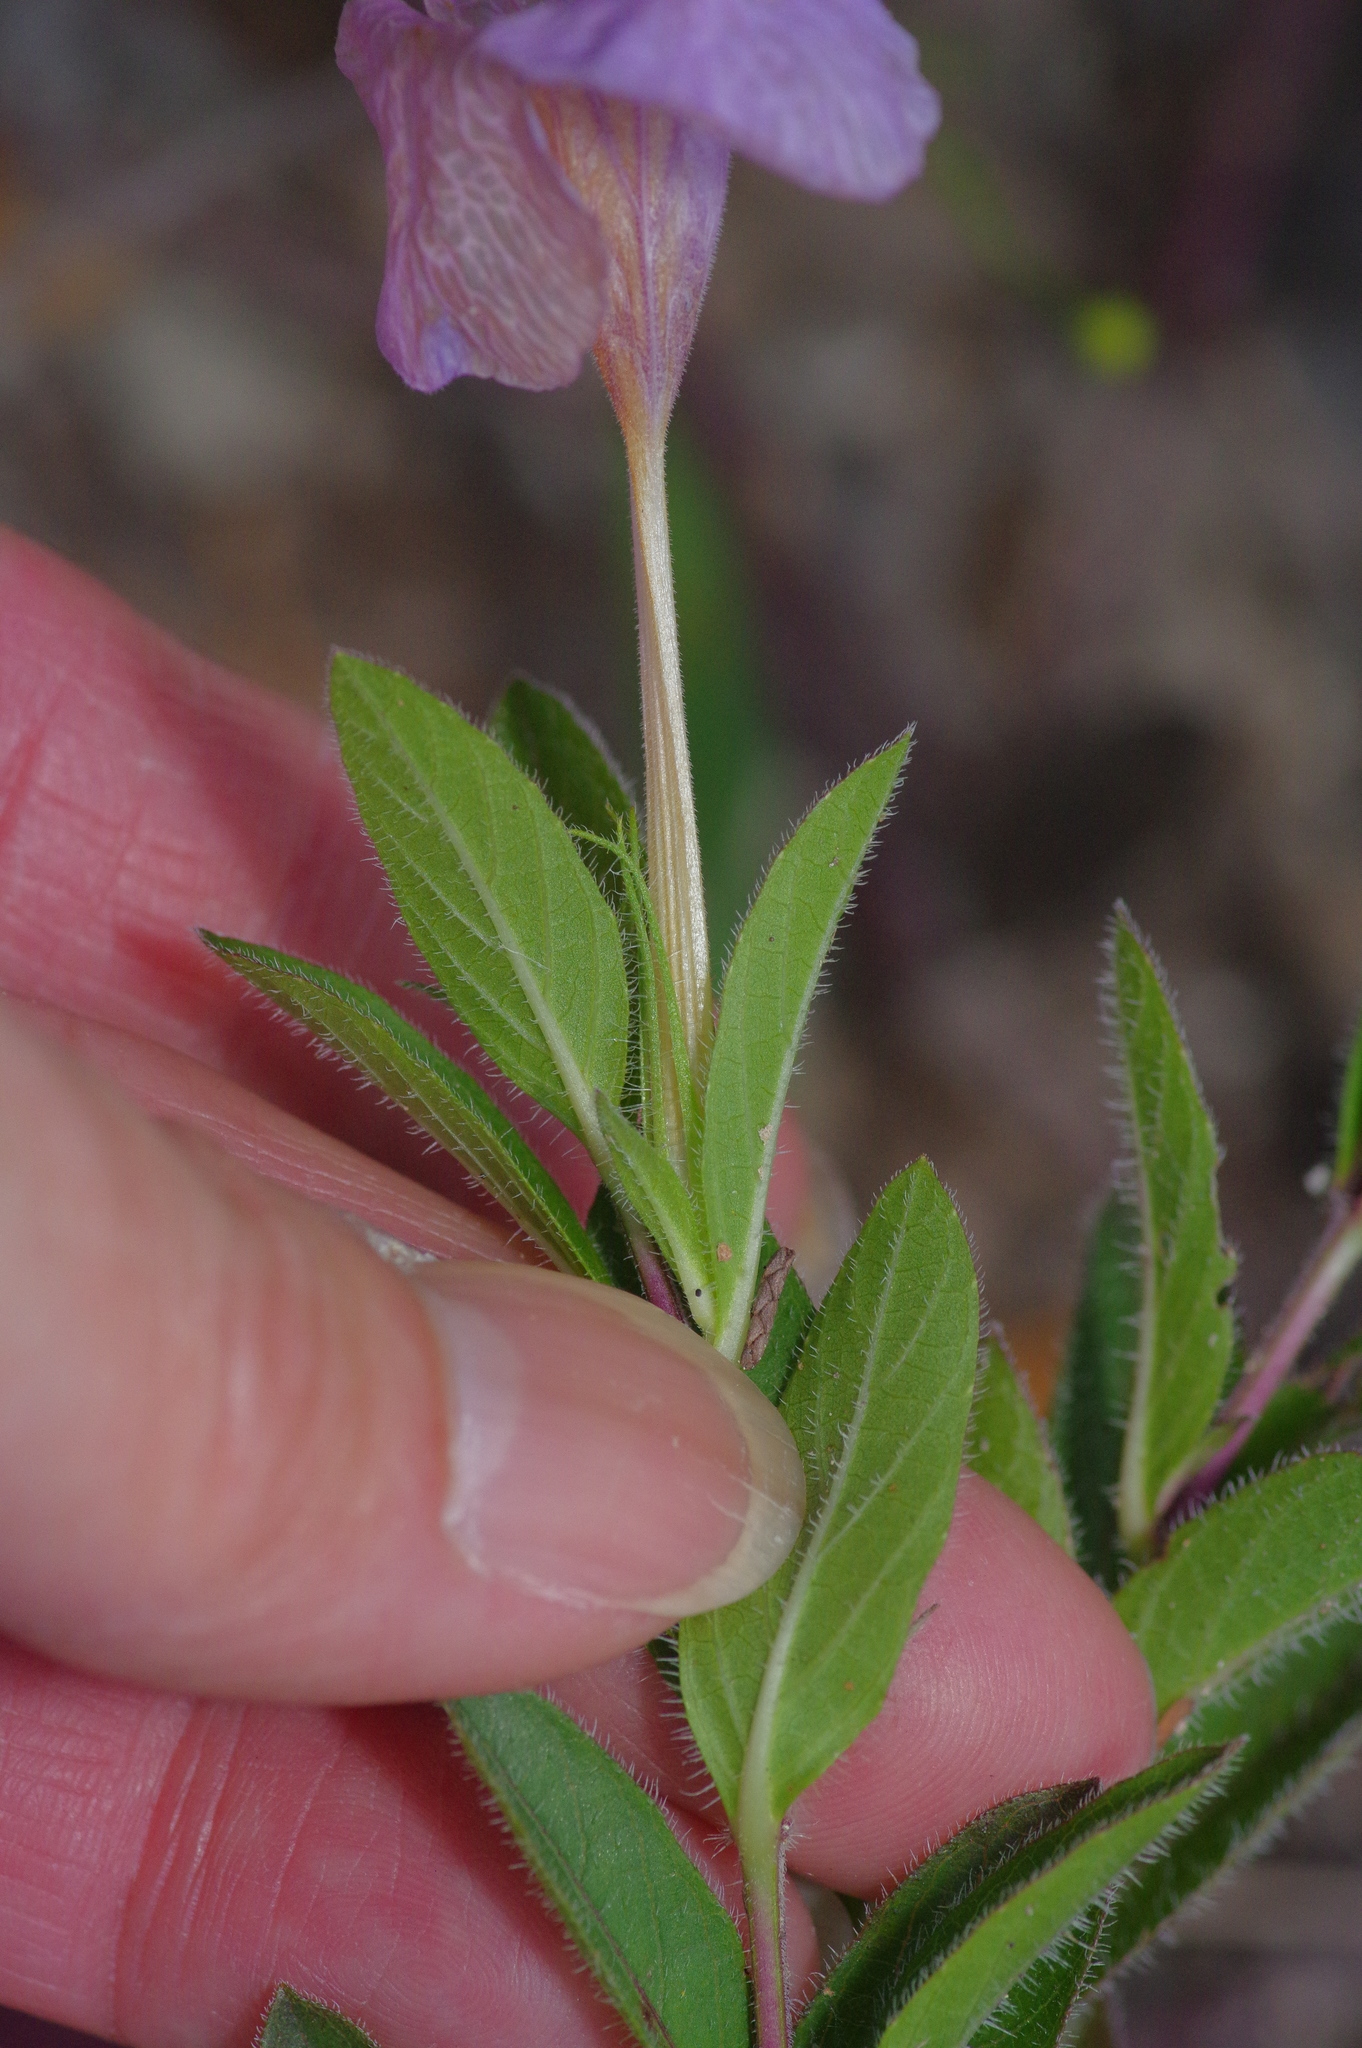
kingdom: Plantae
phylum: Tracheophyta
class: Magnoliopsida
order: Lamiales
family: Acanthaceae
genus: Ruellia
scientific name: Ruellia humilis
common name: Fringe-leaf ruellia
